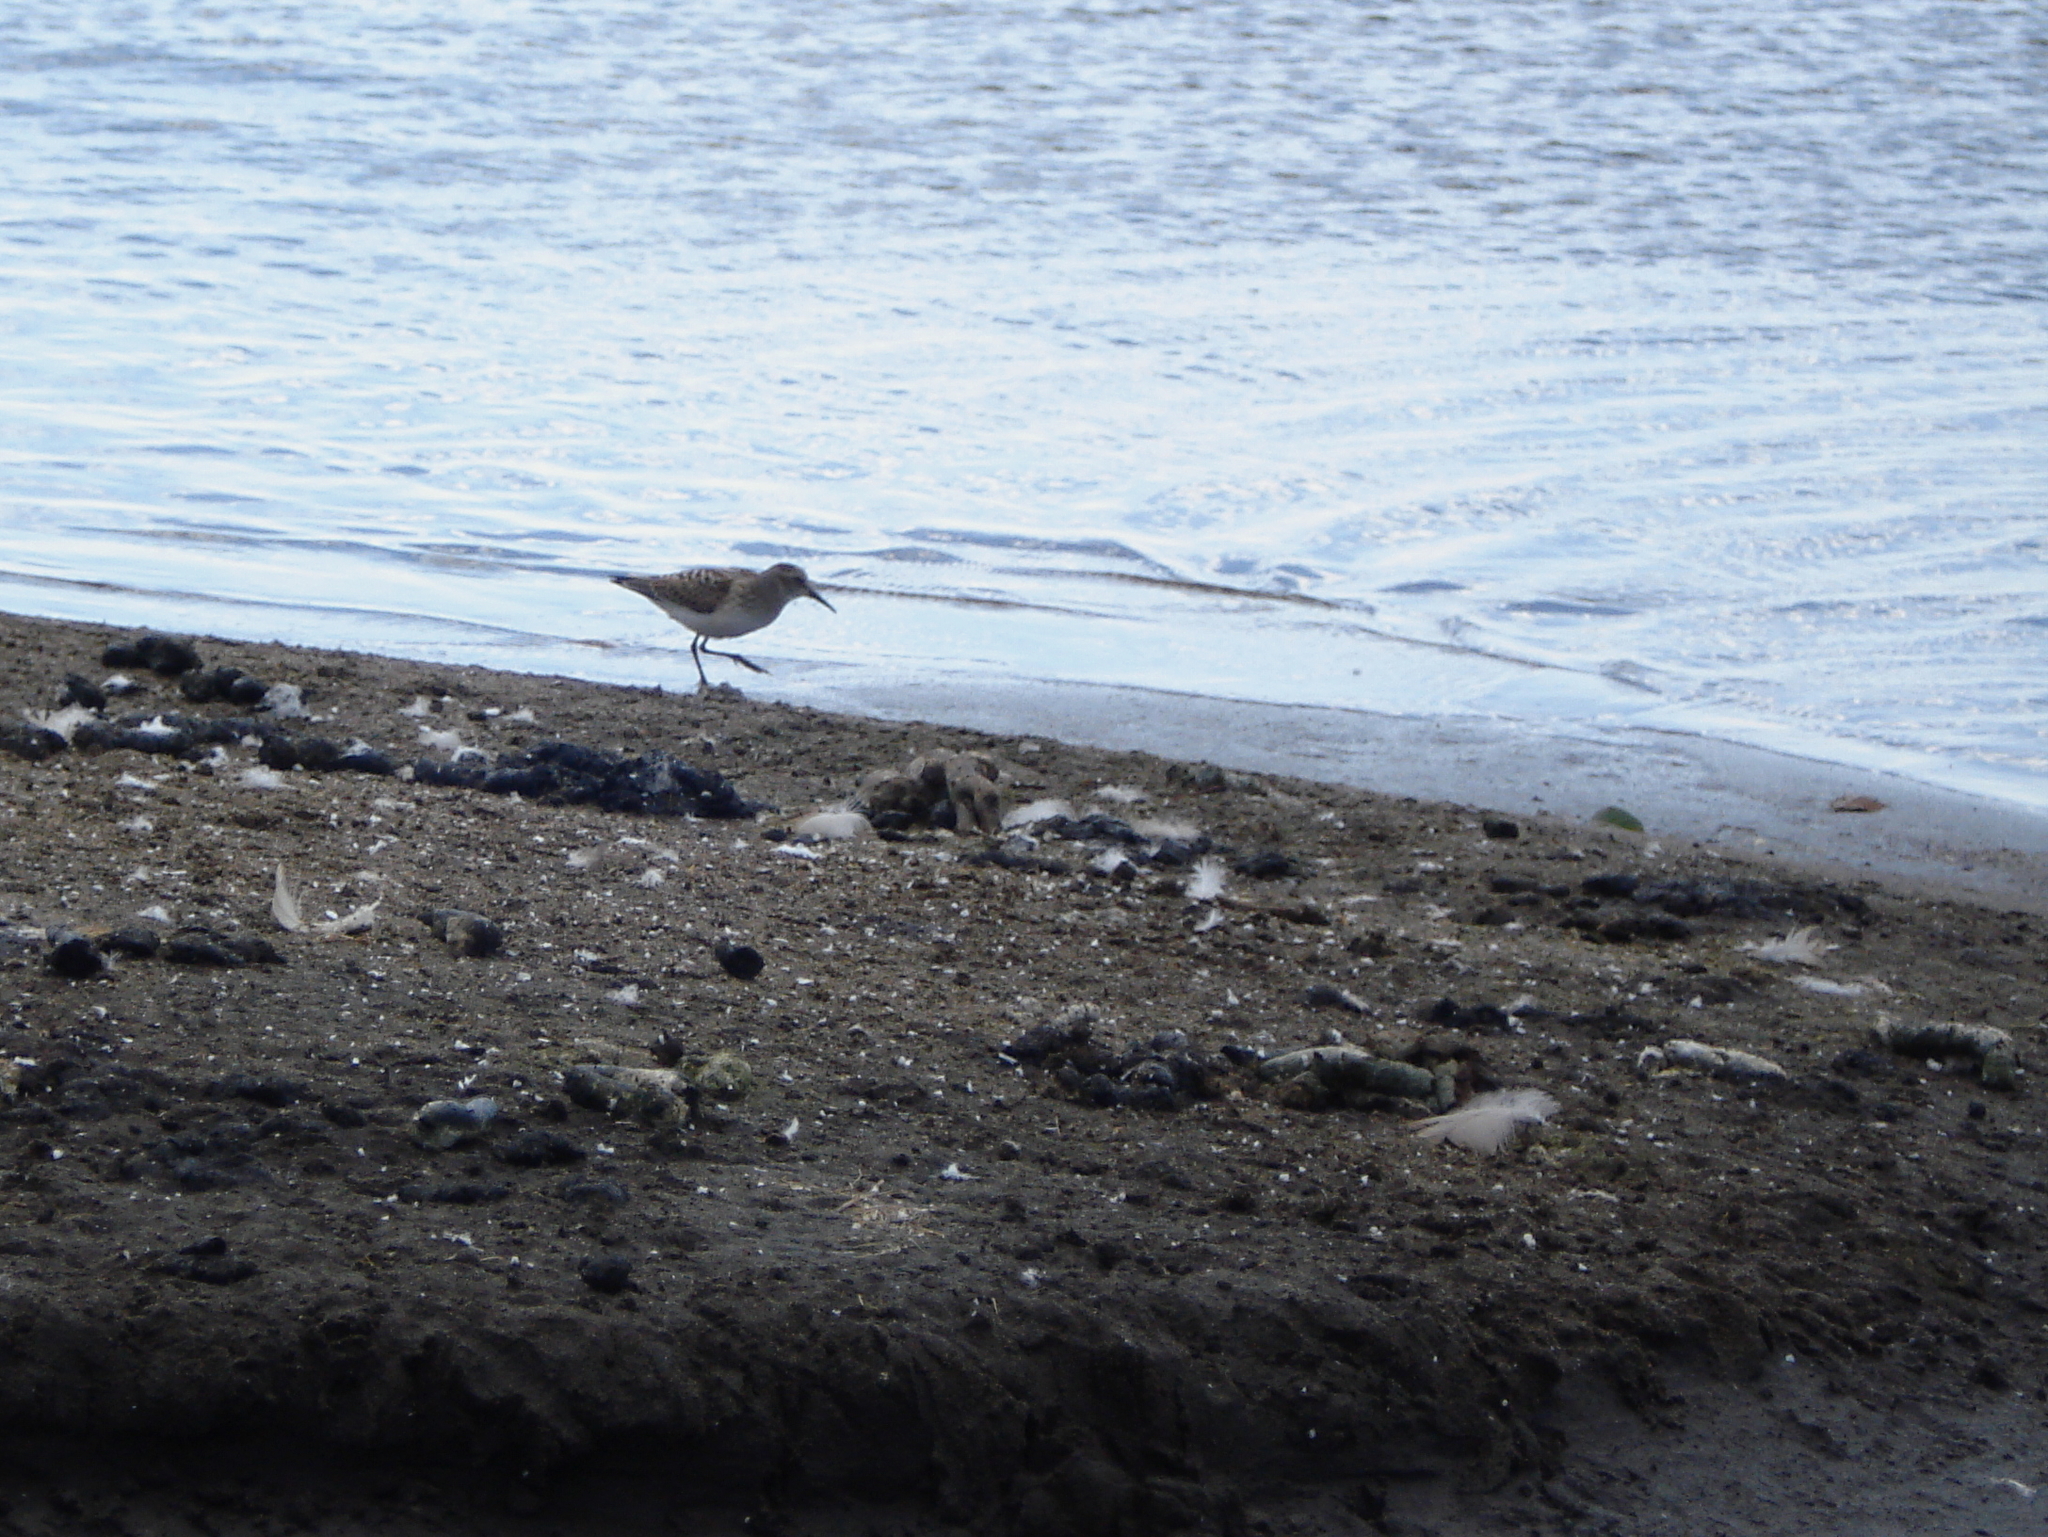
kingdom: Animalia
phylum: Chordata
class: Aves
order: Charadriiformes
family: Scolopacidae
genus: Calidris
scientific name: Calidris pusilla
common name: Semipalmated sandpiper
